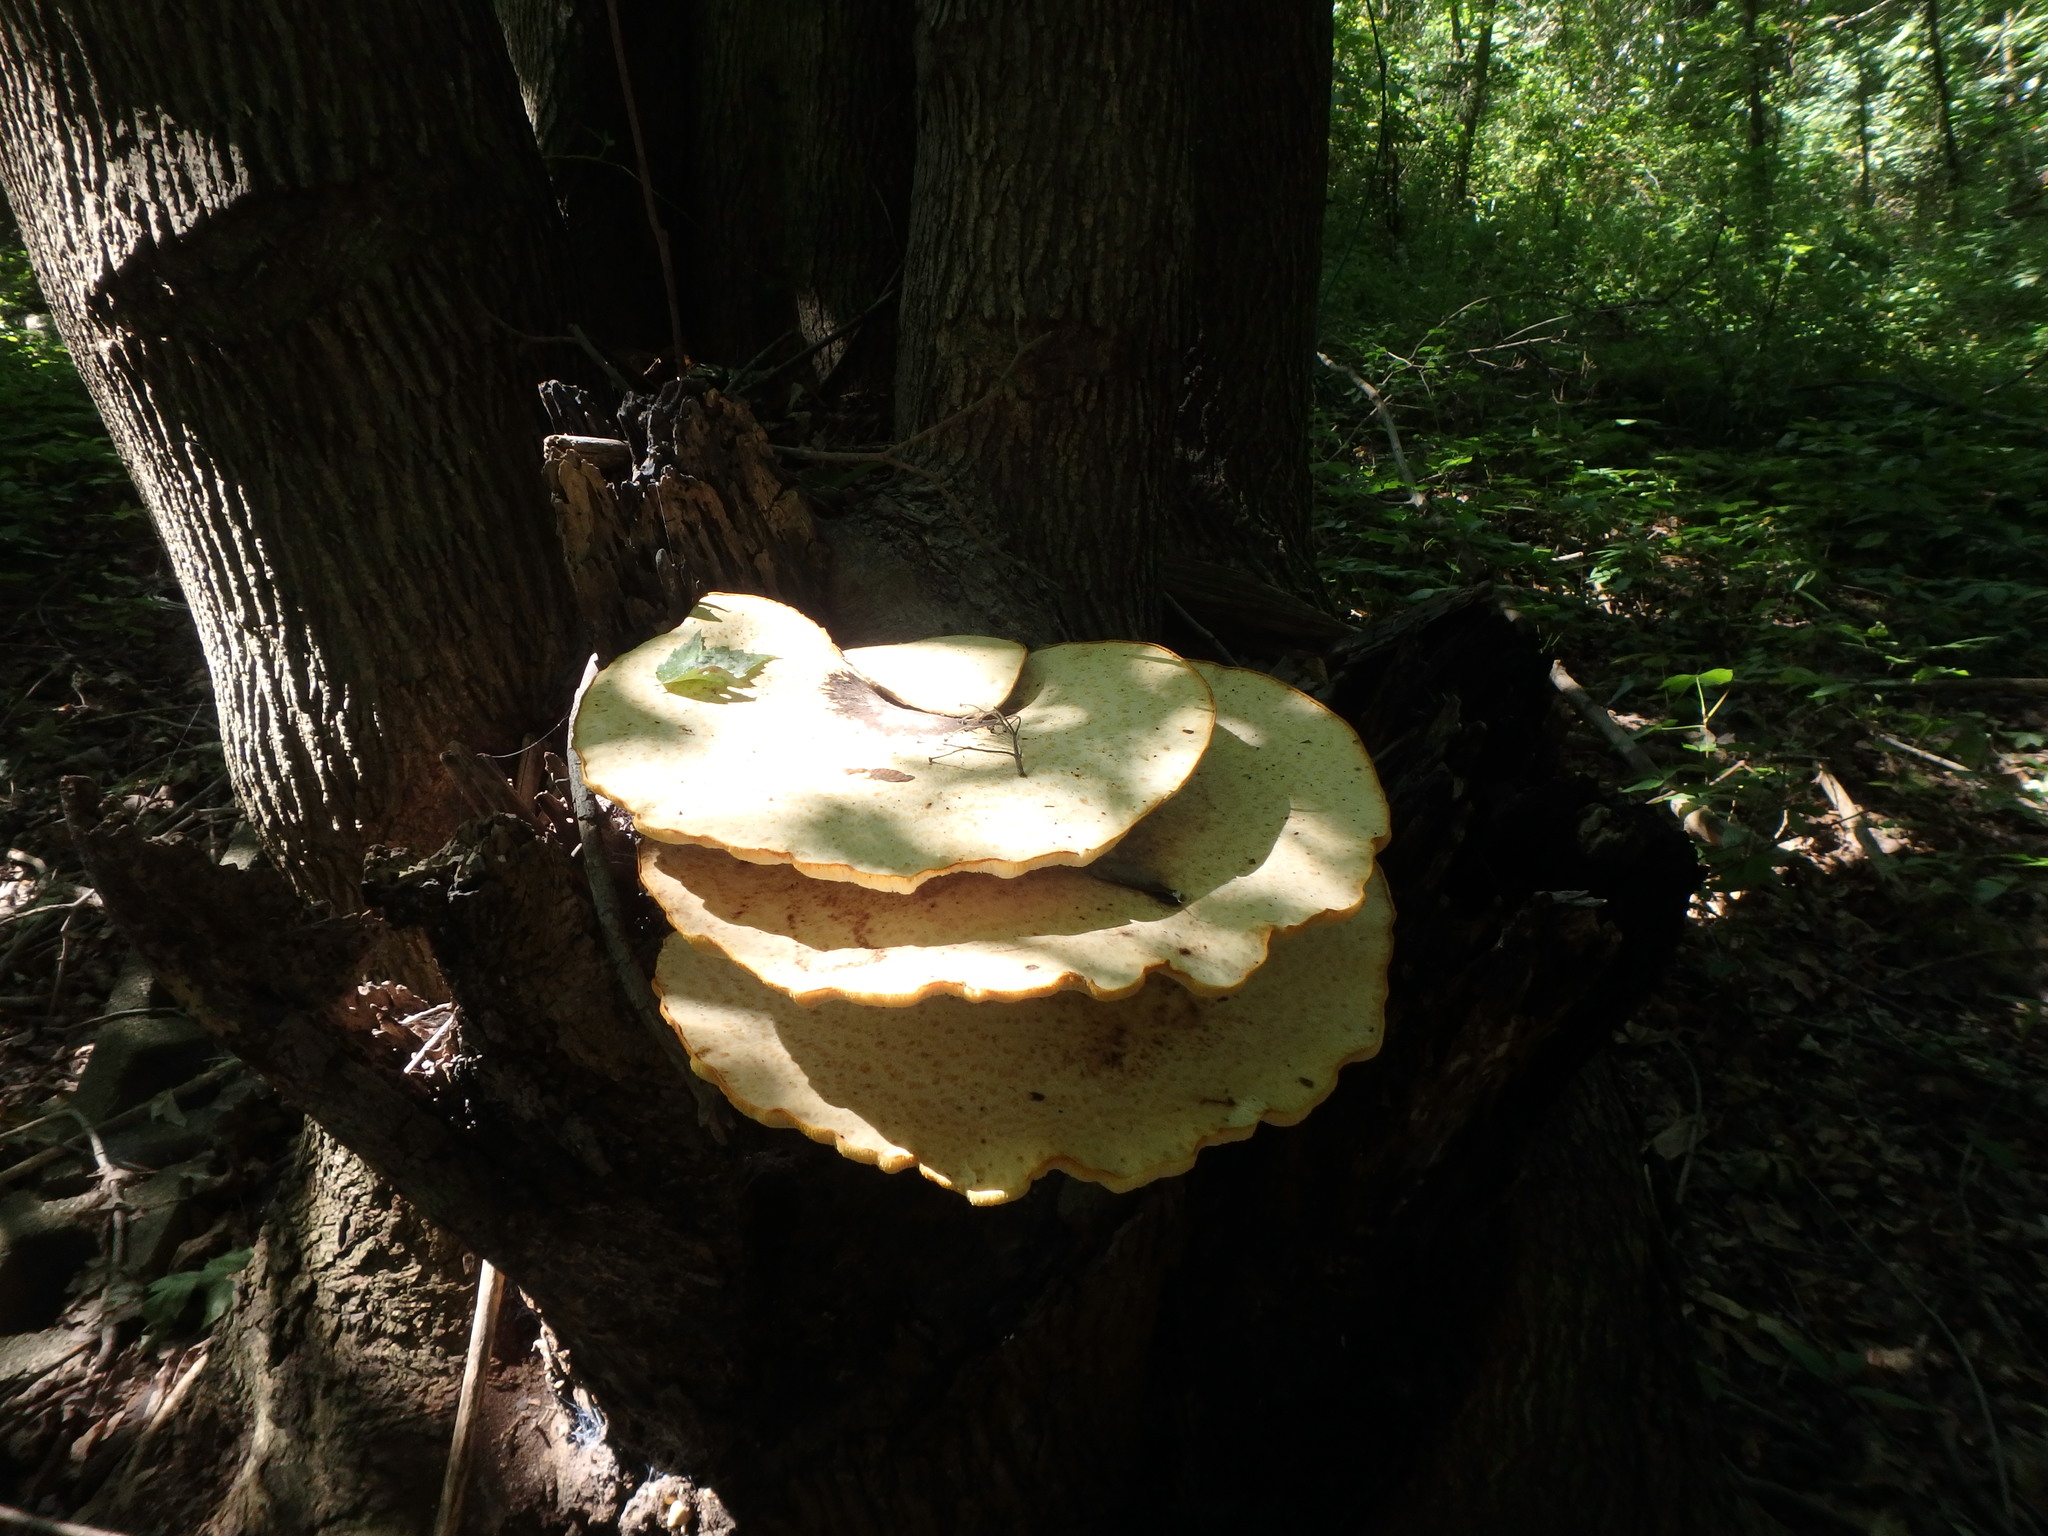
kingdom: Fungi
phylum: Basidiomycota
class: Agaricomycetes
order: Polyporales
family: Polyporaceae
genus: Cerioporus
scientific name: Cerioporus squamosus
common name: Dryad's saddle
